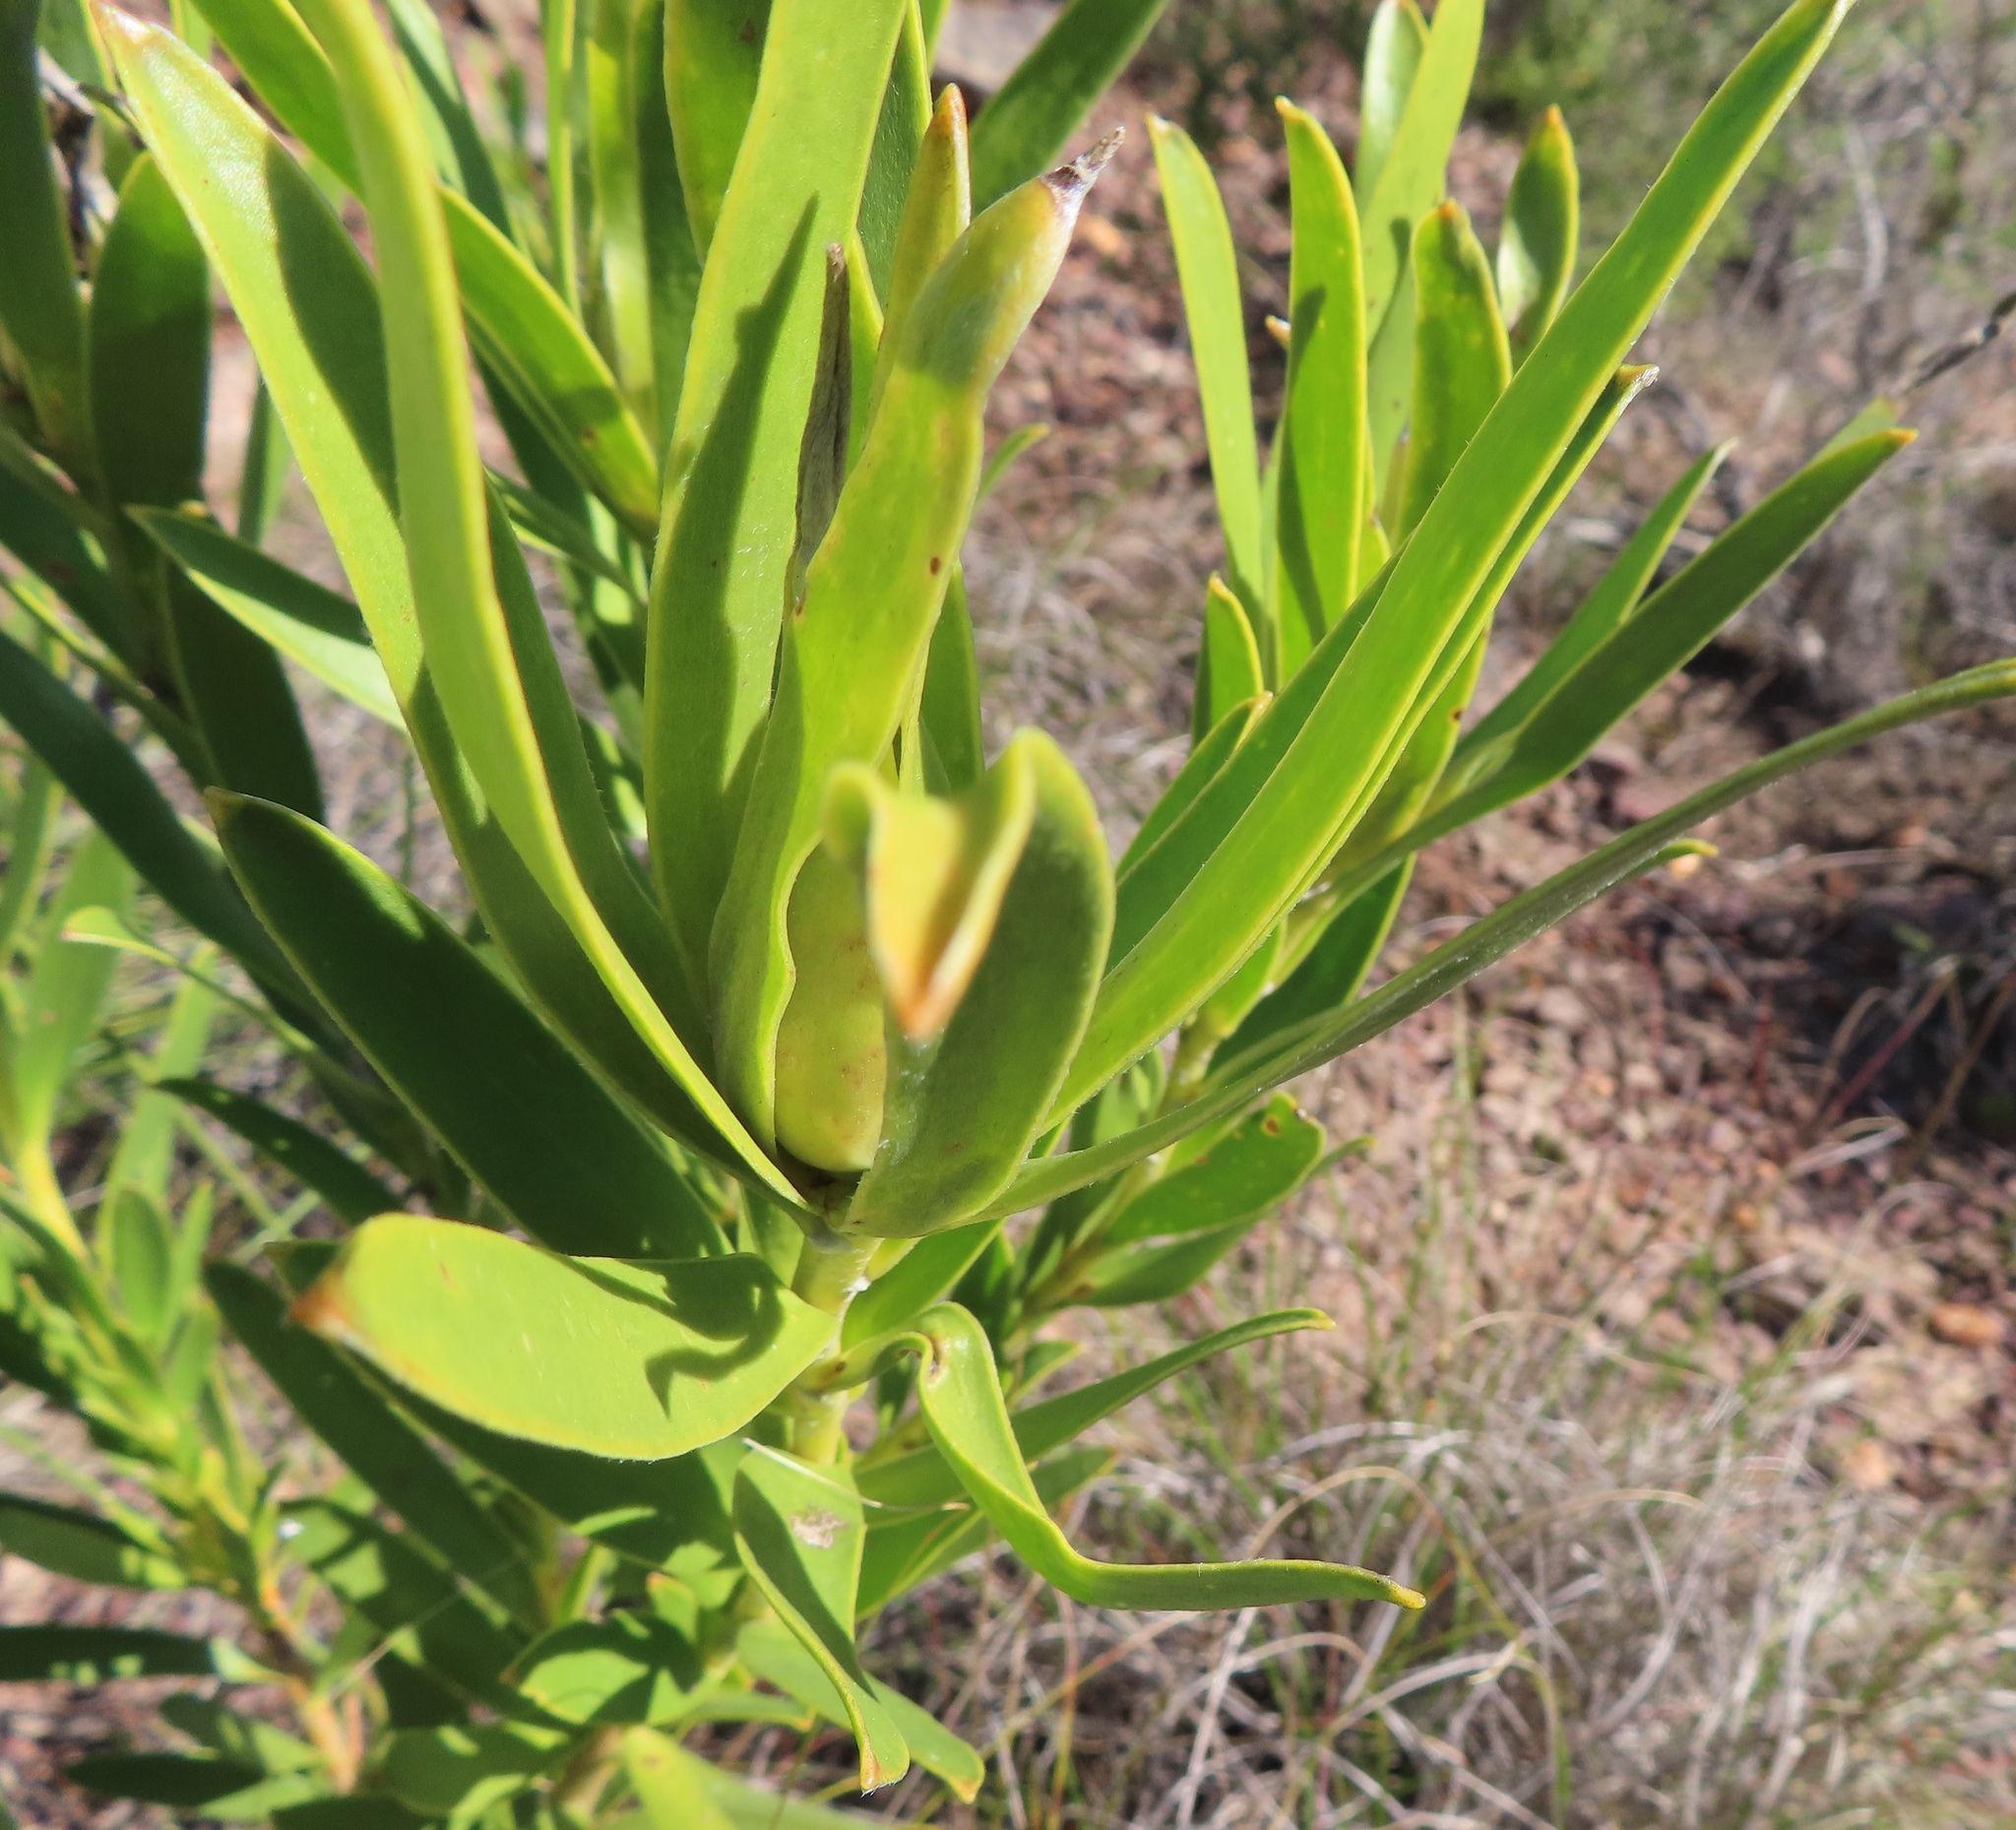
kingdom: Plantae
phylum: Tracheophyta
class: Magnoliopsida
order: Proteales
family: Proteaceae
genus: Leucadendron
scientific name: Leucadendron cryptocephalum
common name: Concealed conebush
